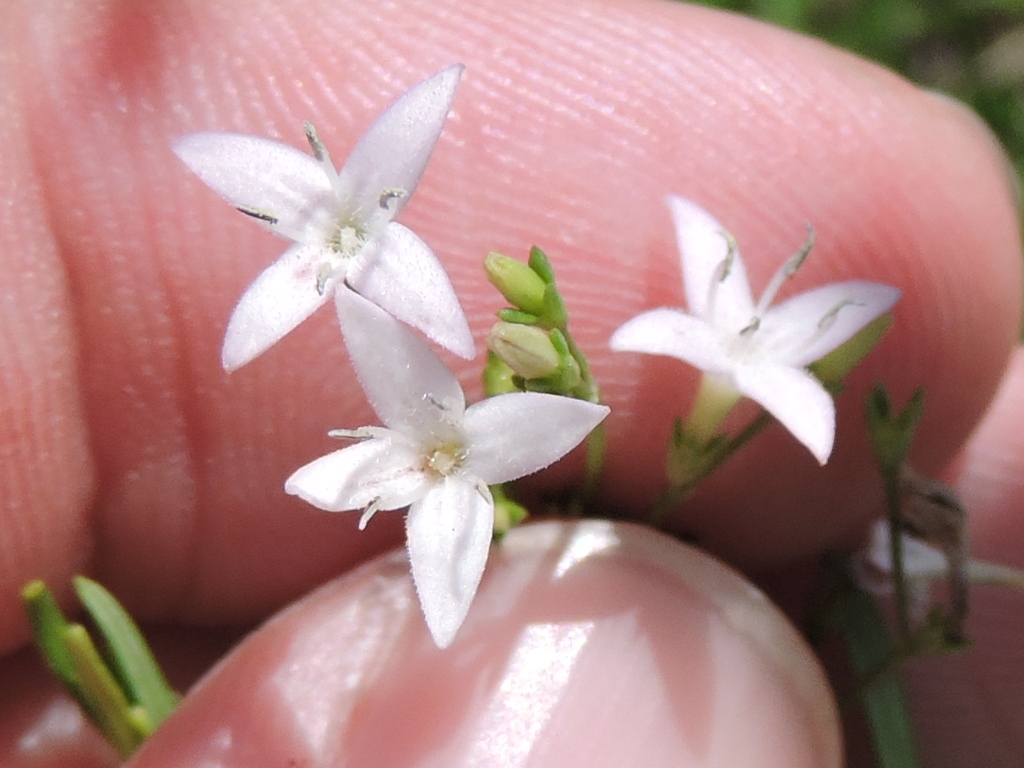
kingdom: Plantae
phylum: Tracheophyta
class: Magnoliopsida
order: Gentianales
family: Rubiaceae
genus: Stenaria
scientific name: Stenaria nigricans
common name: Diamondflowers
